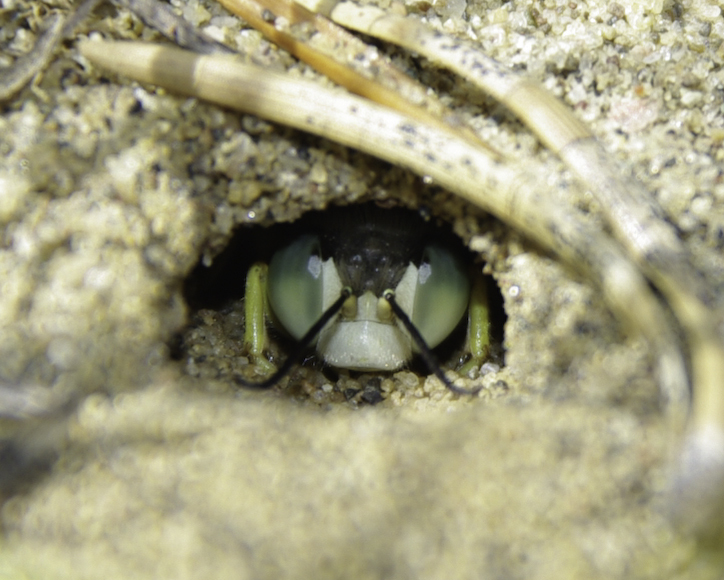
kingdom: Animalia
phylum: Arthropoda
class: Insecta
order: Hymenoptera
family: Crabronidae
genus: Bembix
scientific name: Bembix americana
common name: American sand wasp
